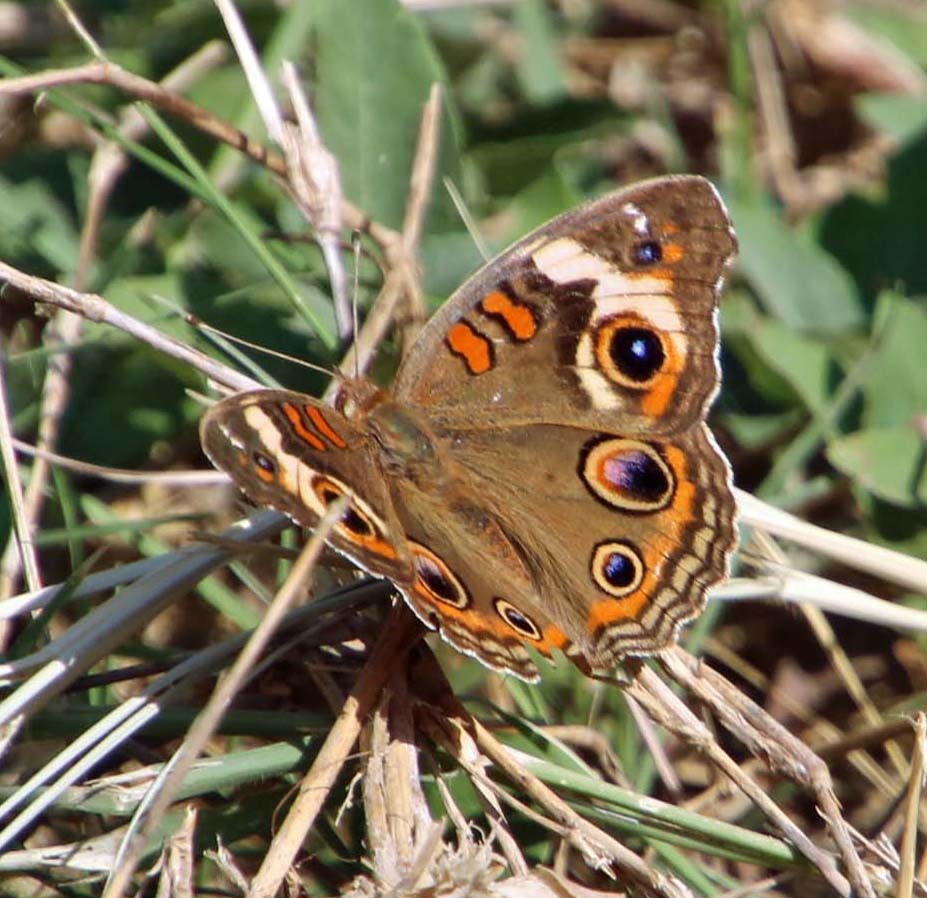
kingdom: Animalia
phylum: Arthropoda
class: Insecta
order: Lepidoptera
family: Nymphalidae
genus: Junonia
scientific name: Junonia coenia
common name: Common buckeye
